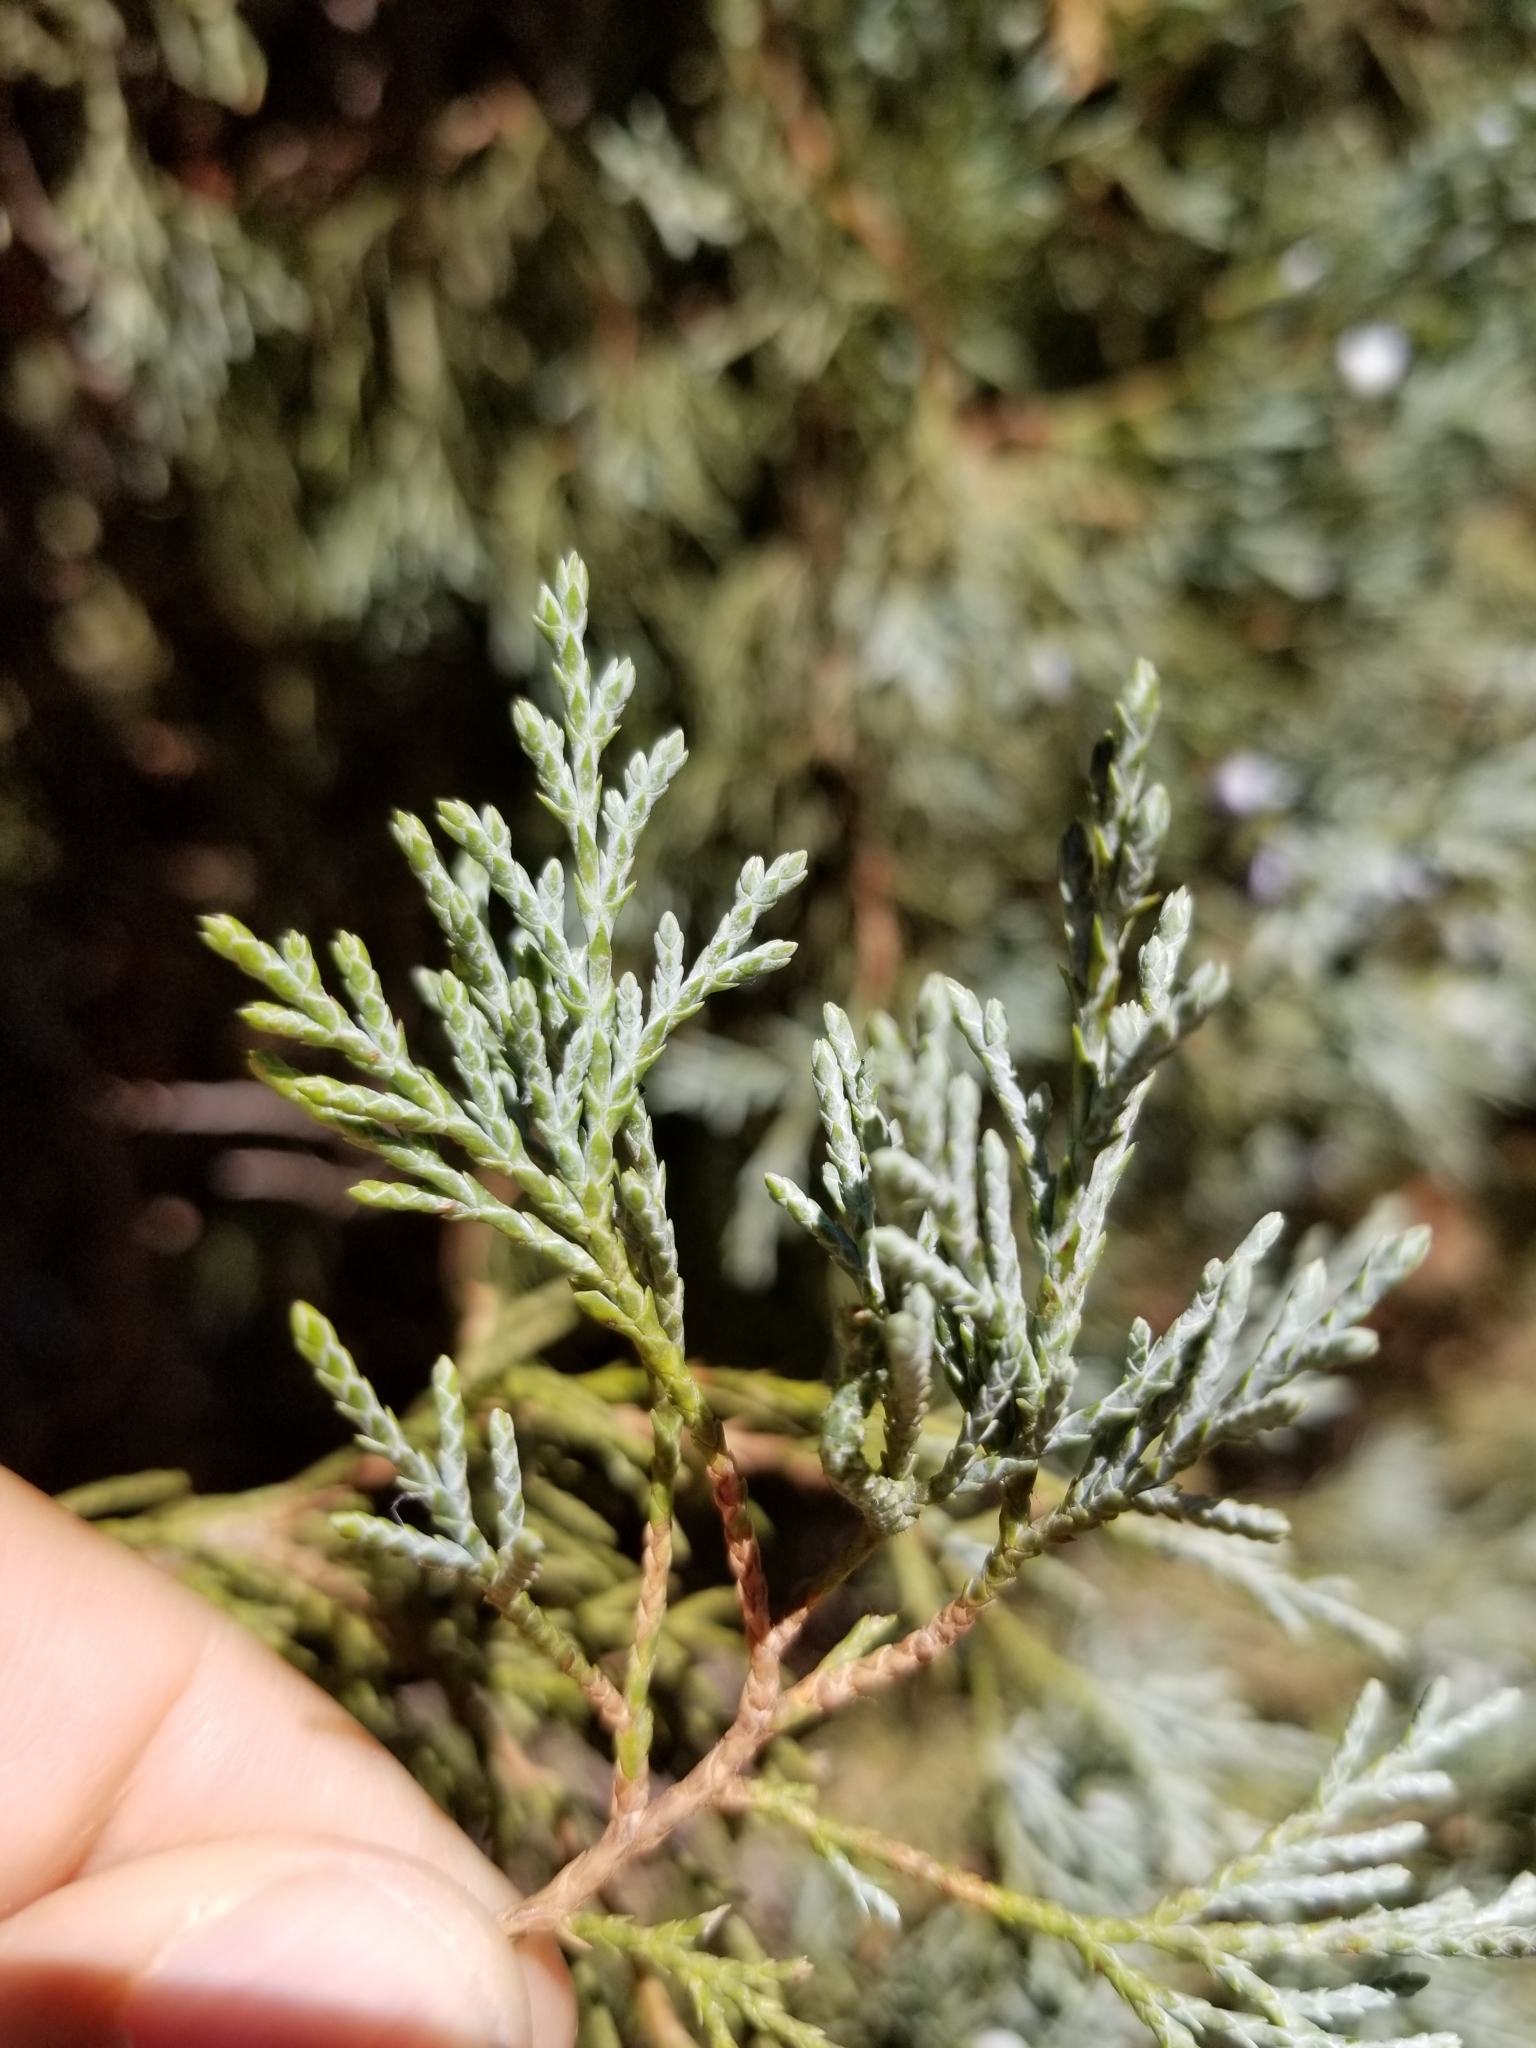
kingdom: Plantae
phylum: Tracheophyta
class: Pinopsida
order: Pinales
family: Cupressaceae
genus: Juniperus
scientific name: Juniperus scopulorum
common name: Rocky mountain juniper
